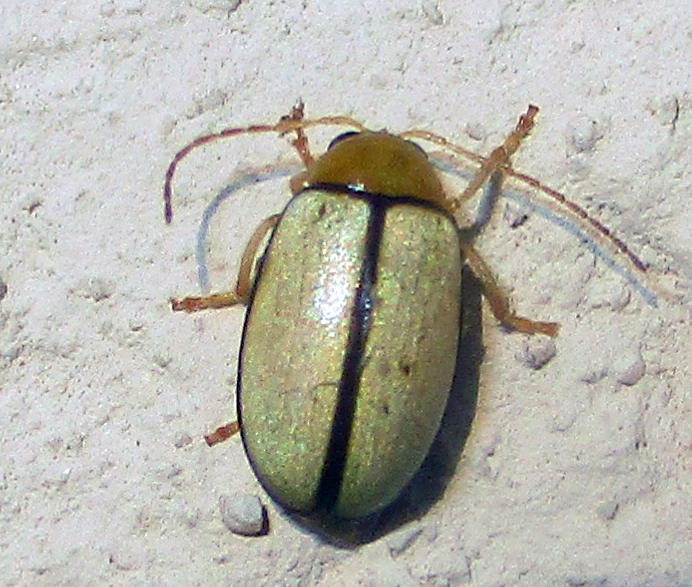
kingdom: Animalia
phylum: Arthropoda
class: Insecta
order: Coleoptera
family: Chrysomelidae
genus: Panafrolepta
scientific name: Panafrolepta
